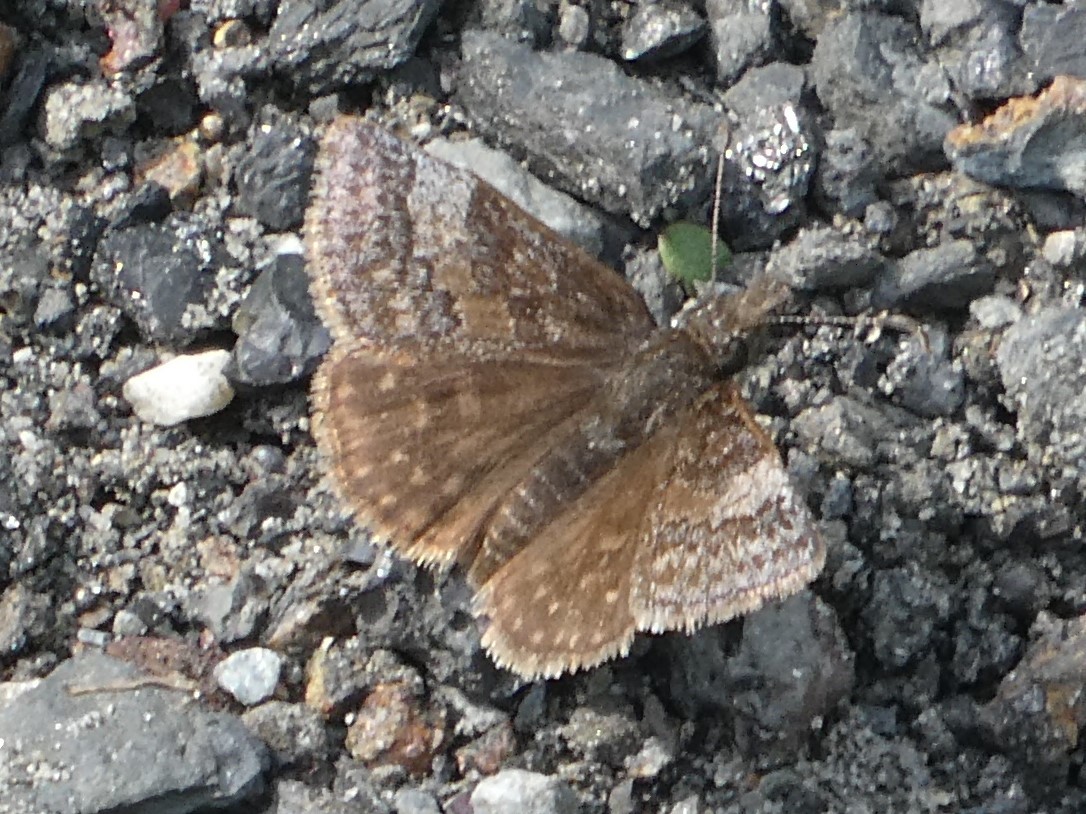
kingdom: Animalia
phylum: Arthropoda
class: Insecta
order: Lepidoptera
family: Hesperiidae
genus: Erynnis
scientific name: Erynnis icelus
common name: Dreamy duskywing
